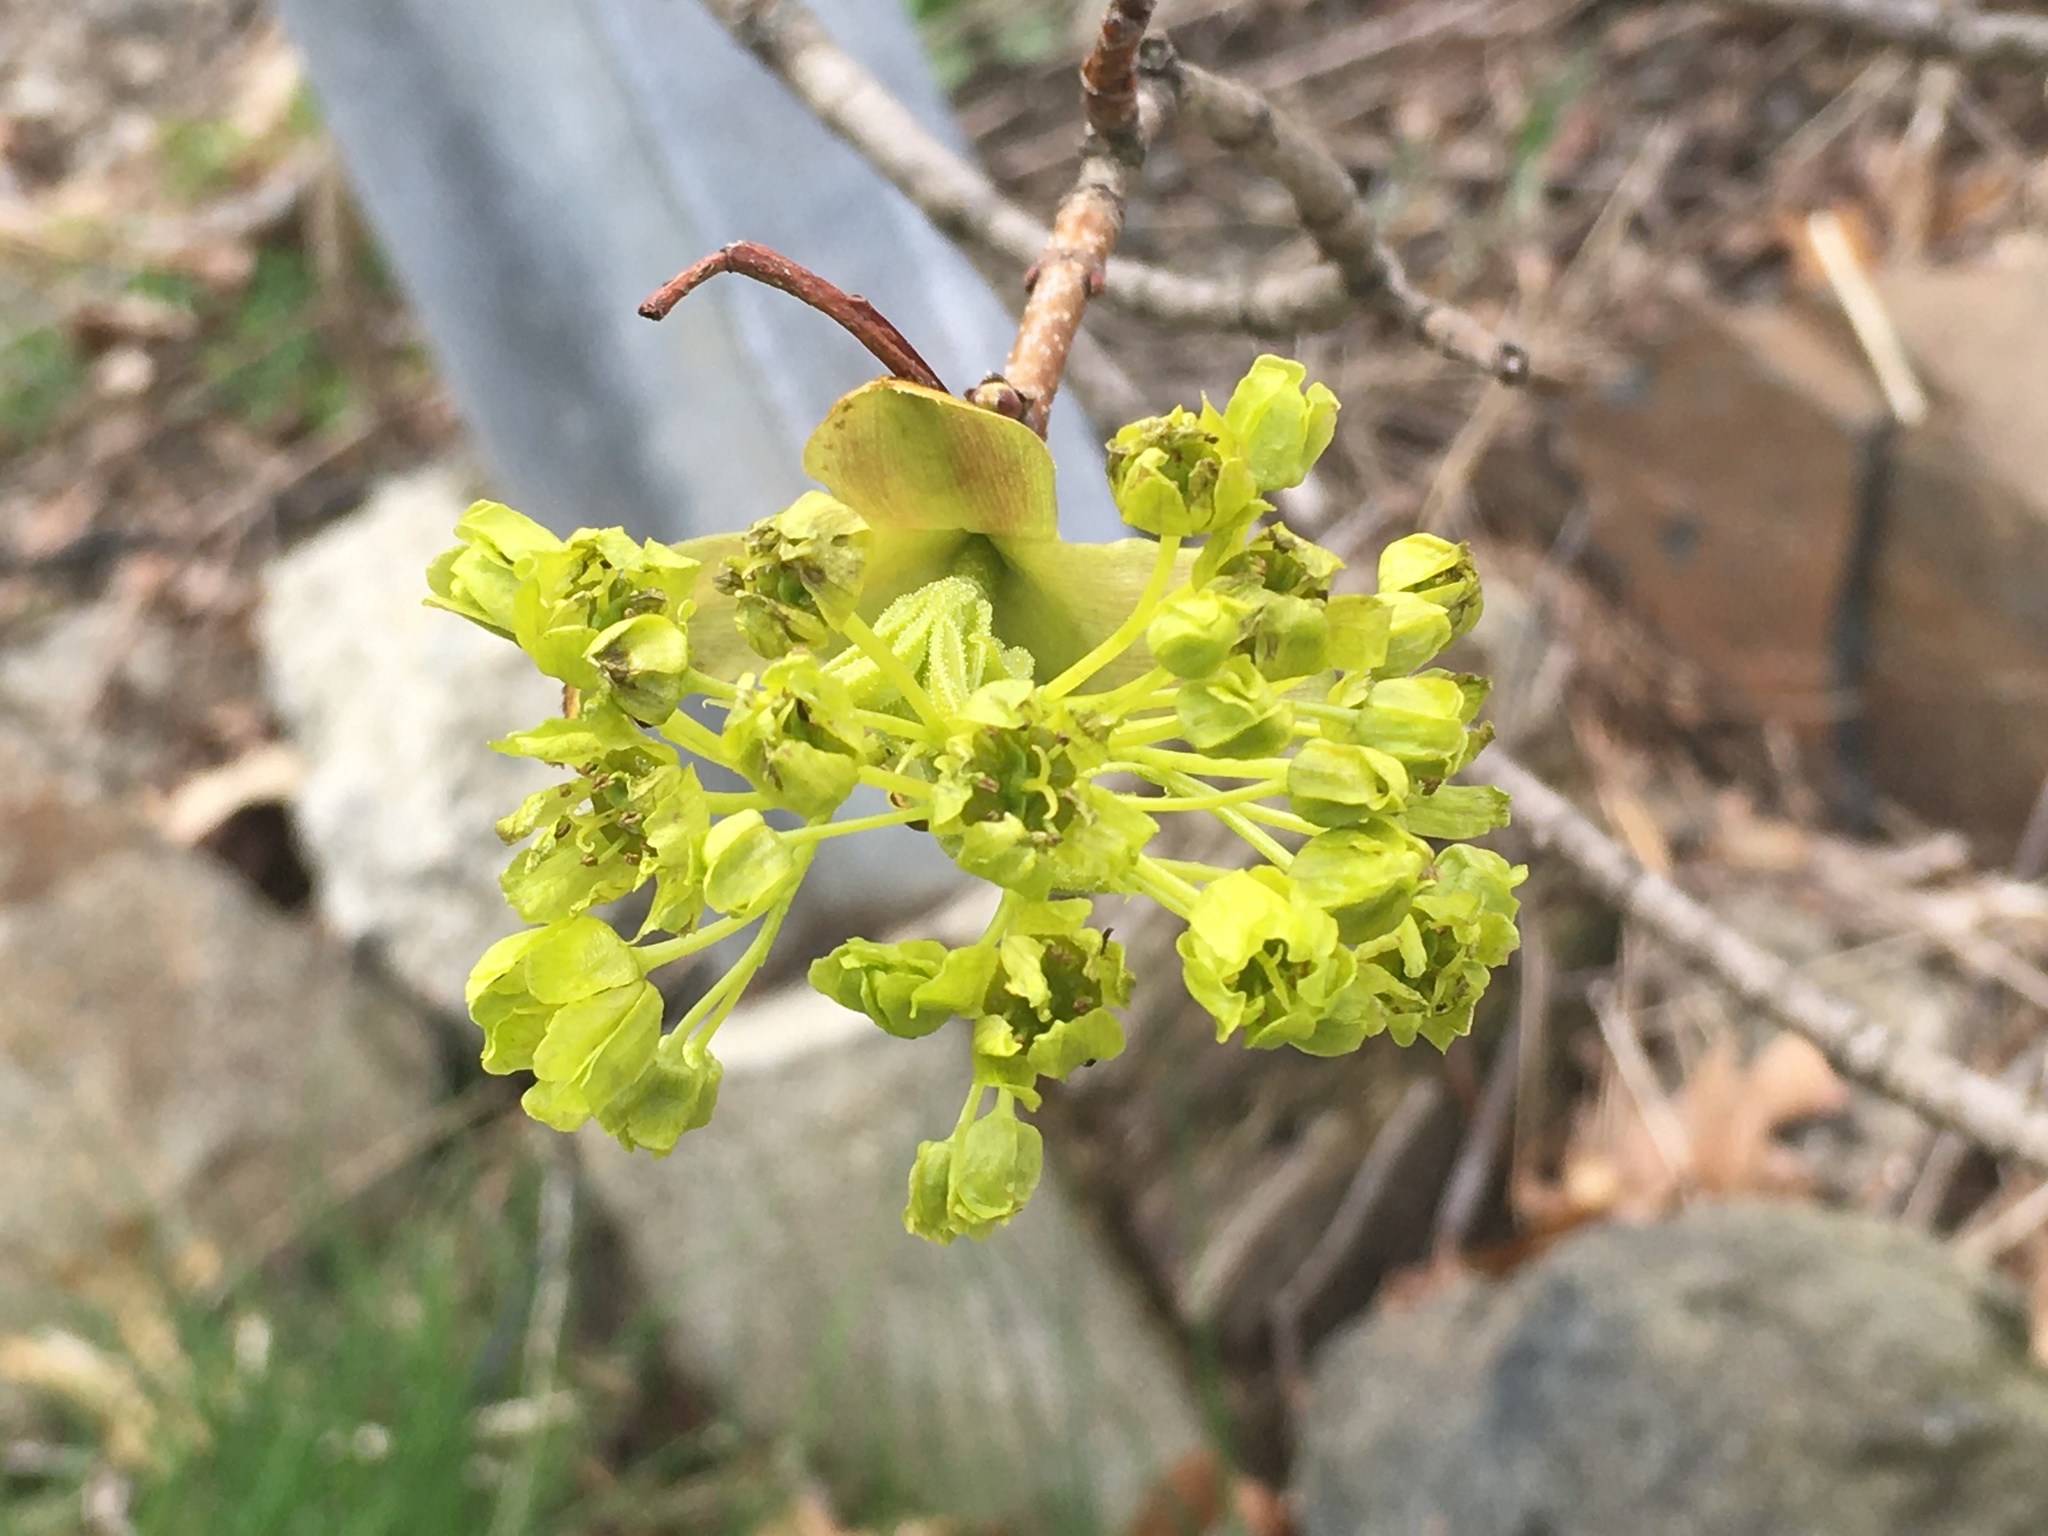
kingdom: Plantae
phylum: Tracheophyta
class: Magnoliopsida
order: Sapindales
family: Sapindaceae
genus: Acer
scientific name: Acer platanoides
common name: Norway maple
